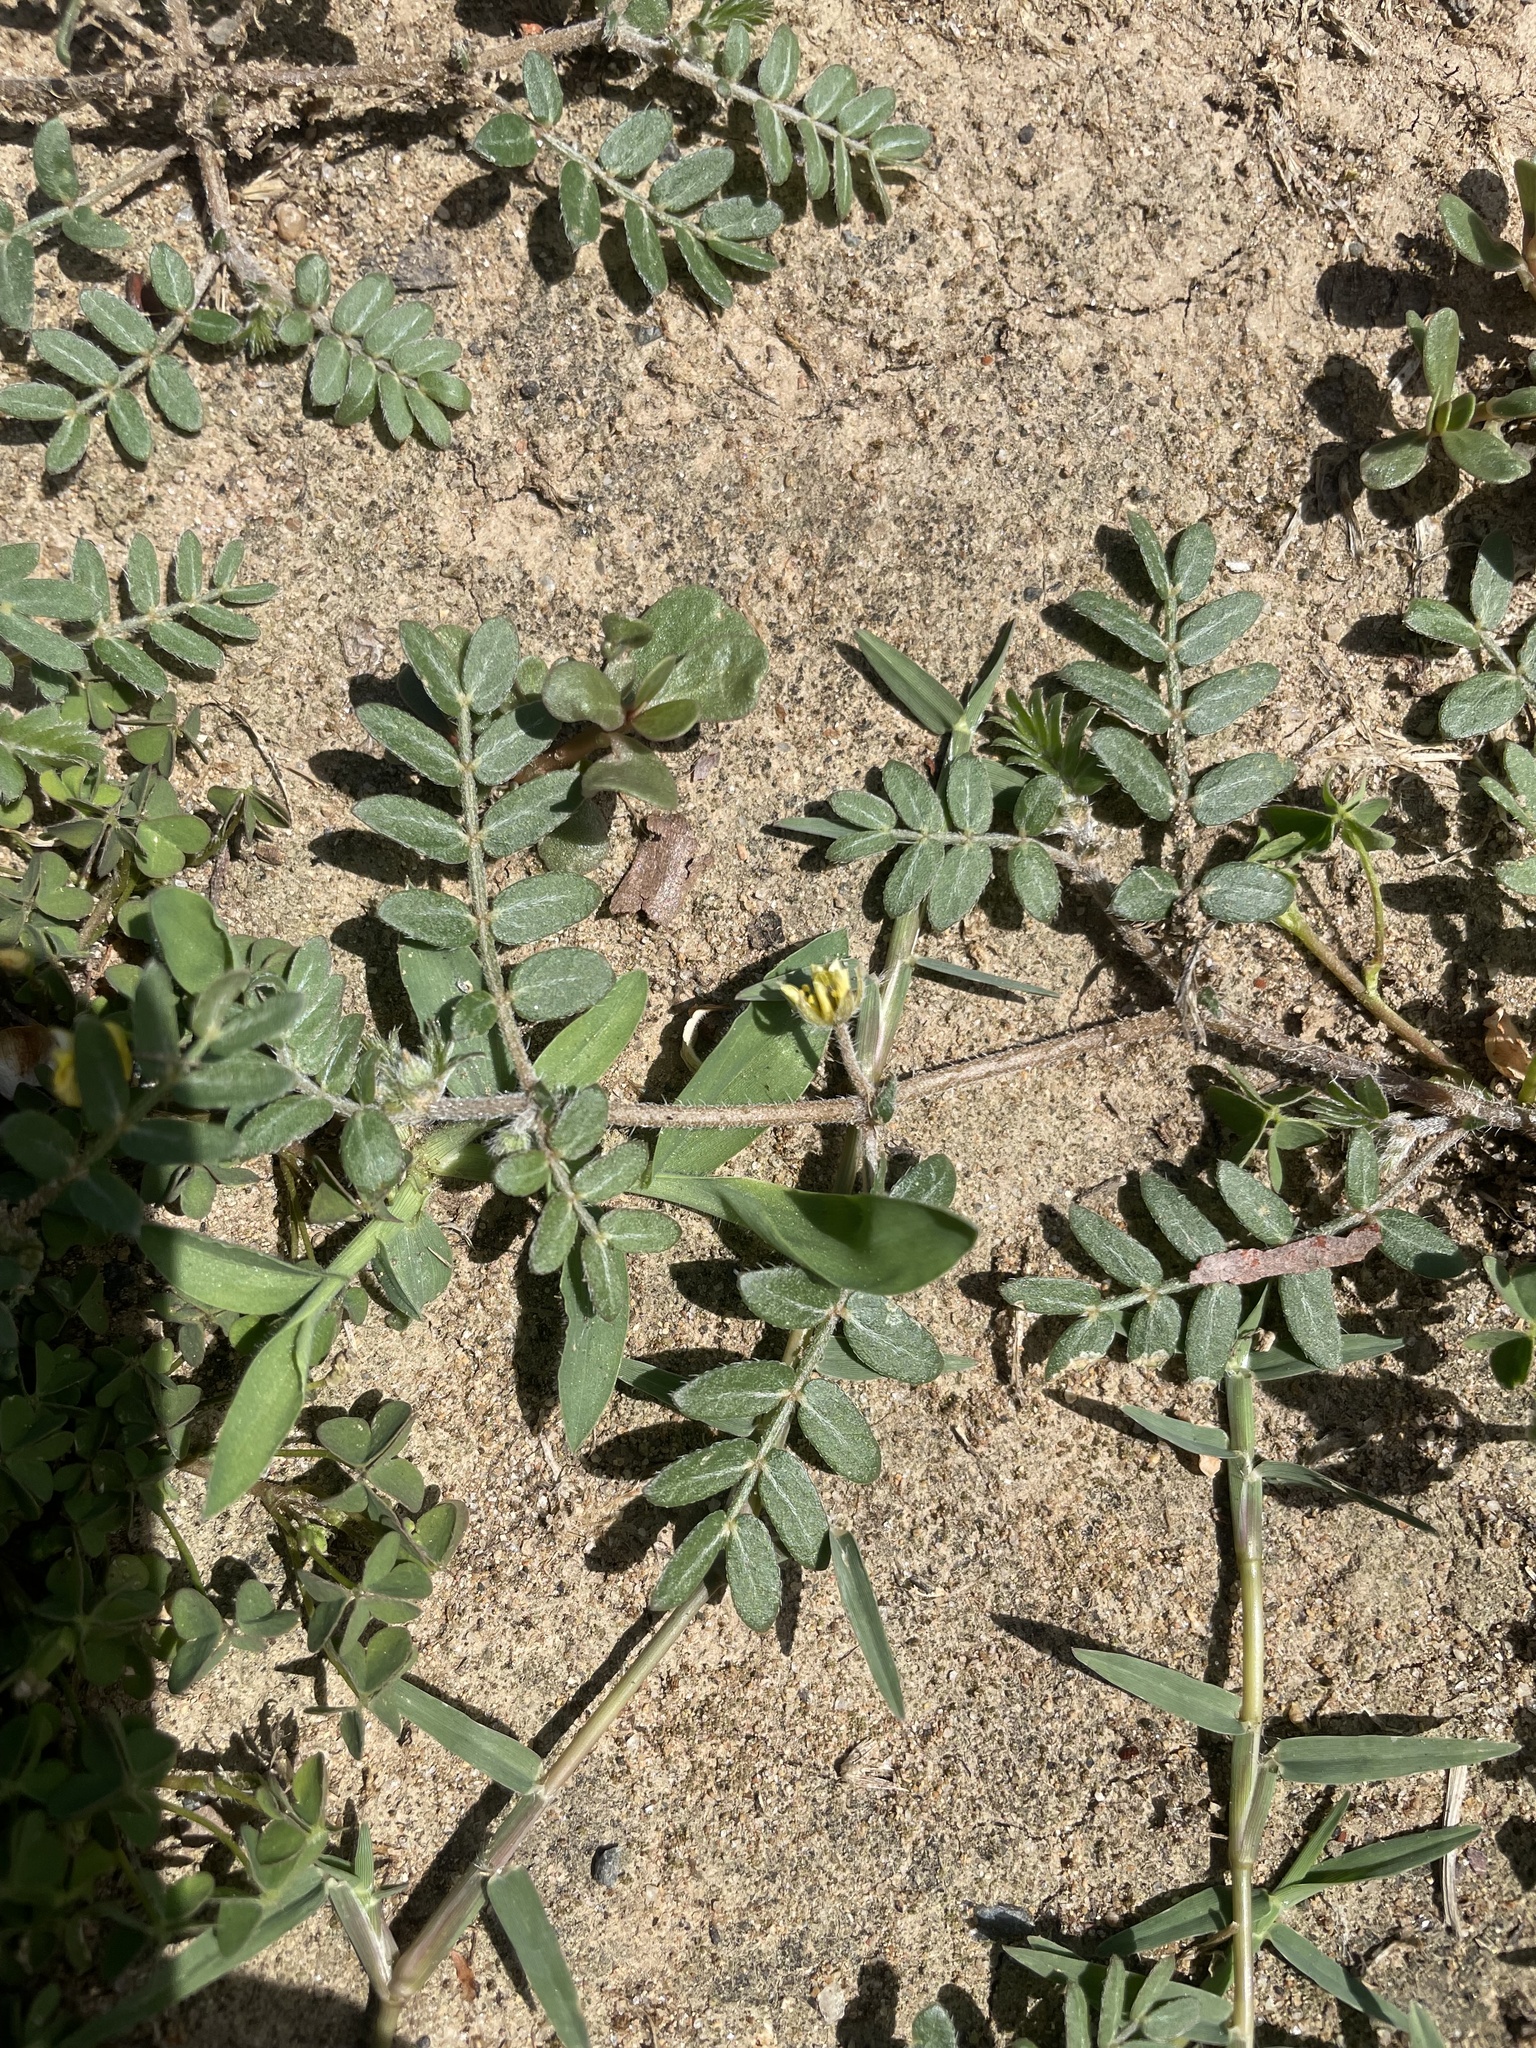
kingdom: Plantae
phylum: Tracheophyta
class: Magnoliopsida
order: Zygophyllales
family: Zygophyllaceae
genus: Tribulus
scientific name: Tribulus terrestris
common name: Puncturevine
